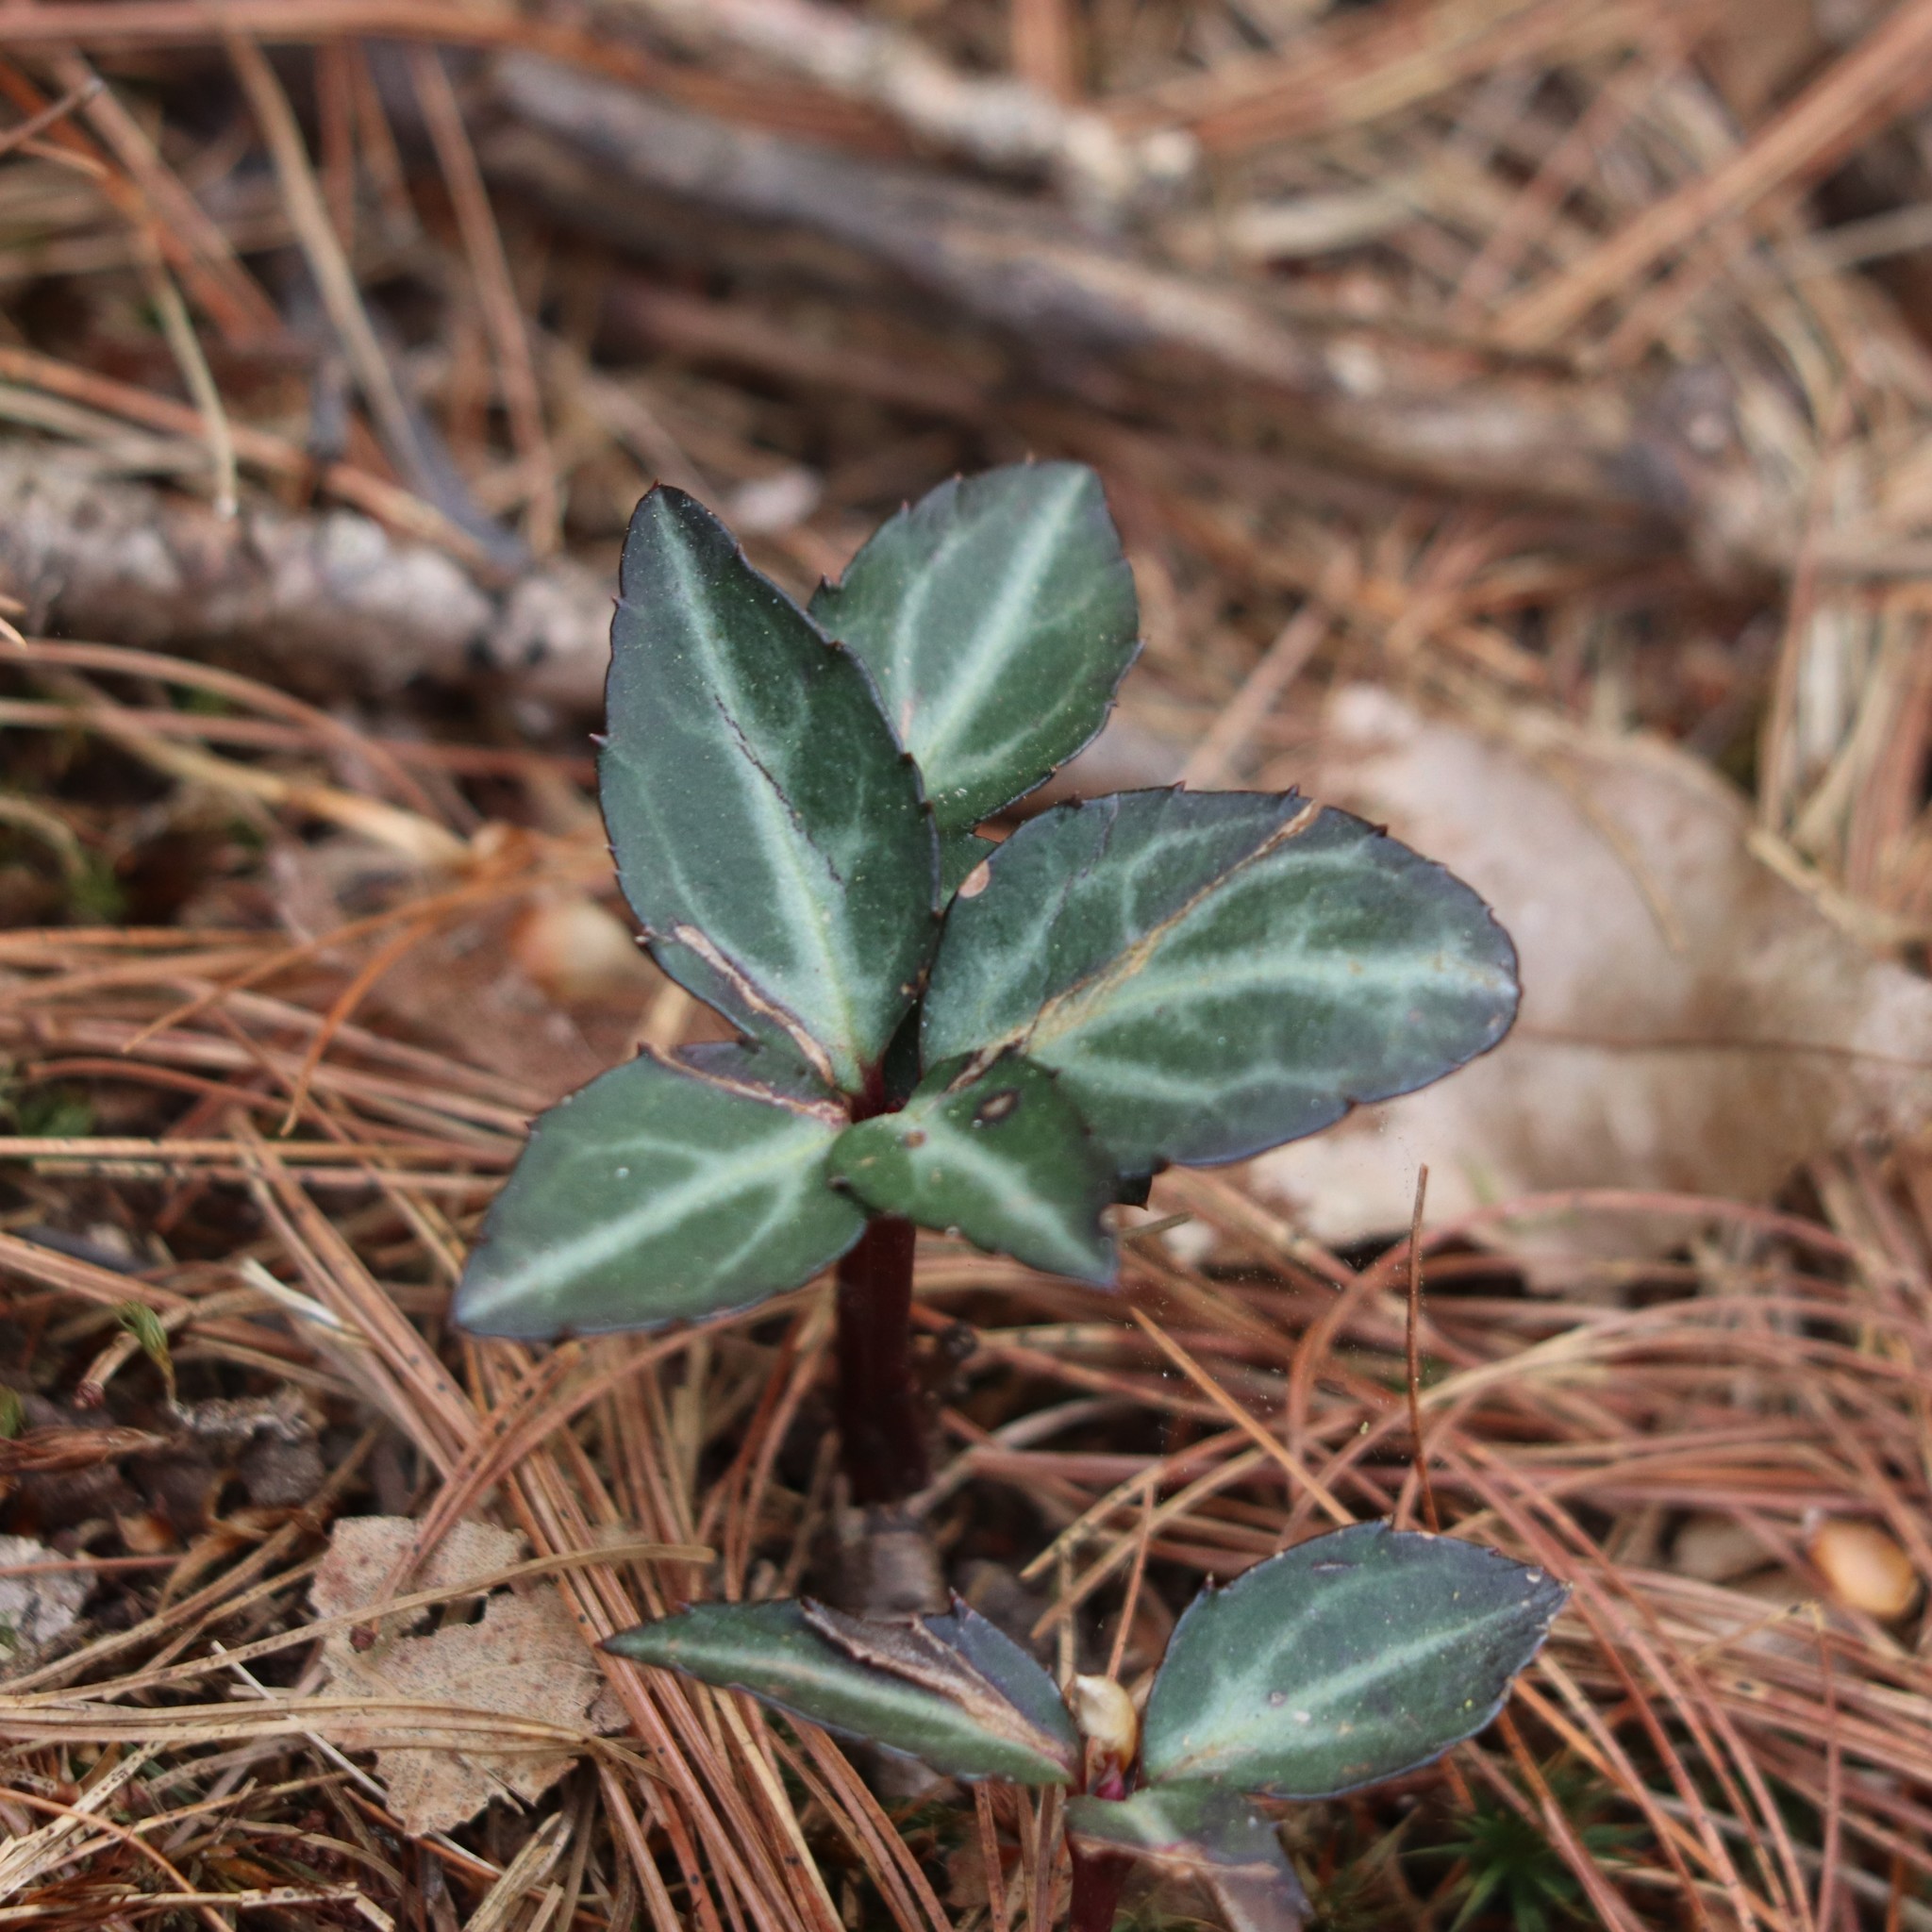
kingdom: Plantae
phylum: Tracheophyta
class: Magnoliopsida
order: Ericales
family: Ericaceae
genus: Chimaphila
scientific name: Chimaphila maculata
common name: Spotted pipsissewa
